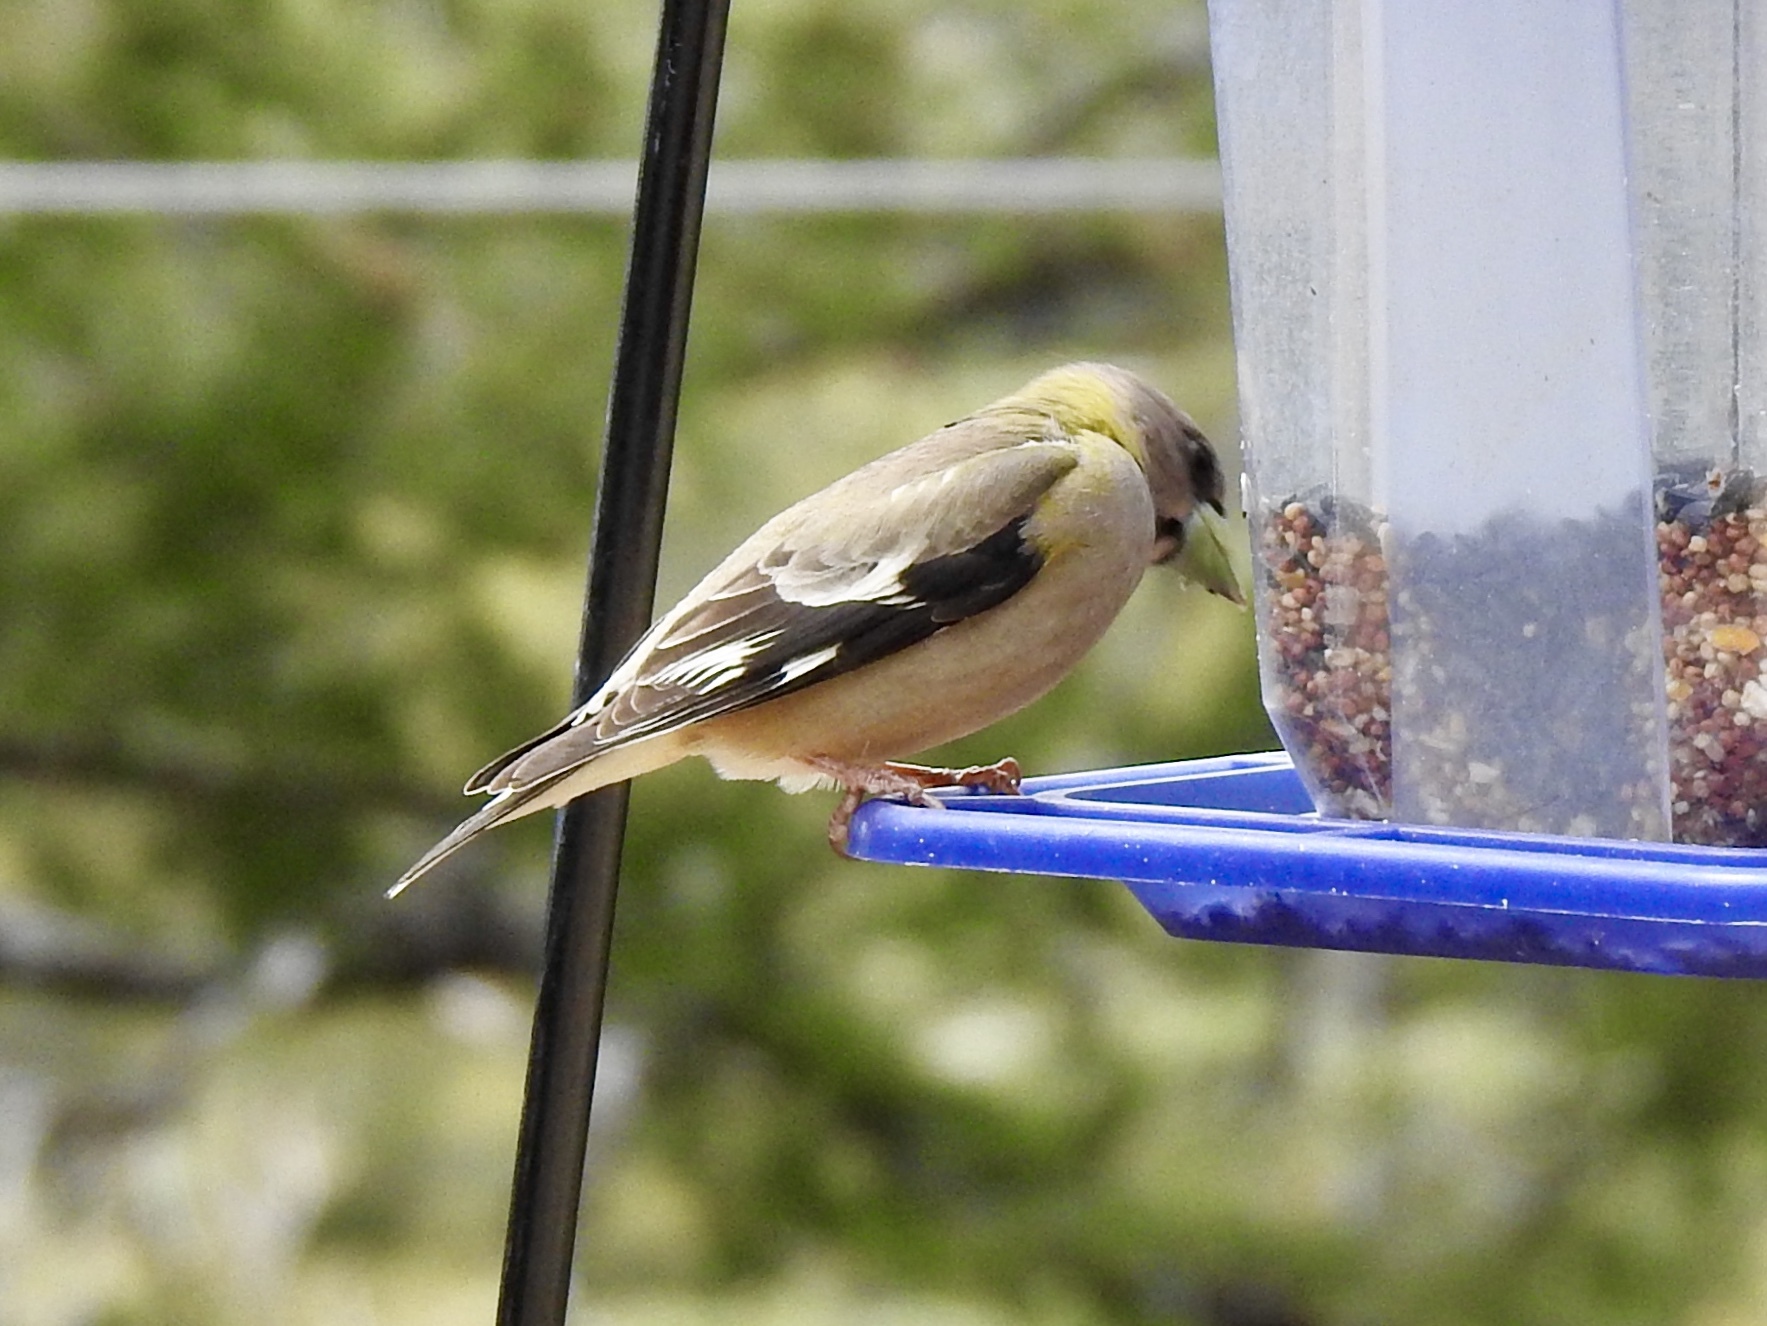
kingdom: Animalia
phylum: Chordata
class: Aves
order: Passeriformes
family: Fringillidae
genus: Hesperiphona
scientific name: Hesperiphona vespertina
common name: Evening grosbeak
